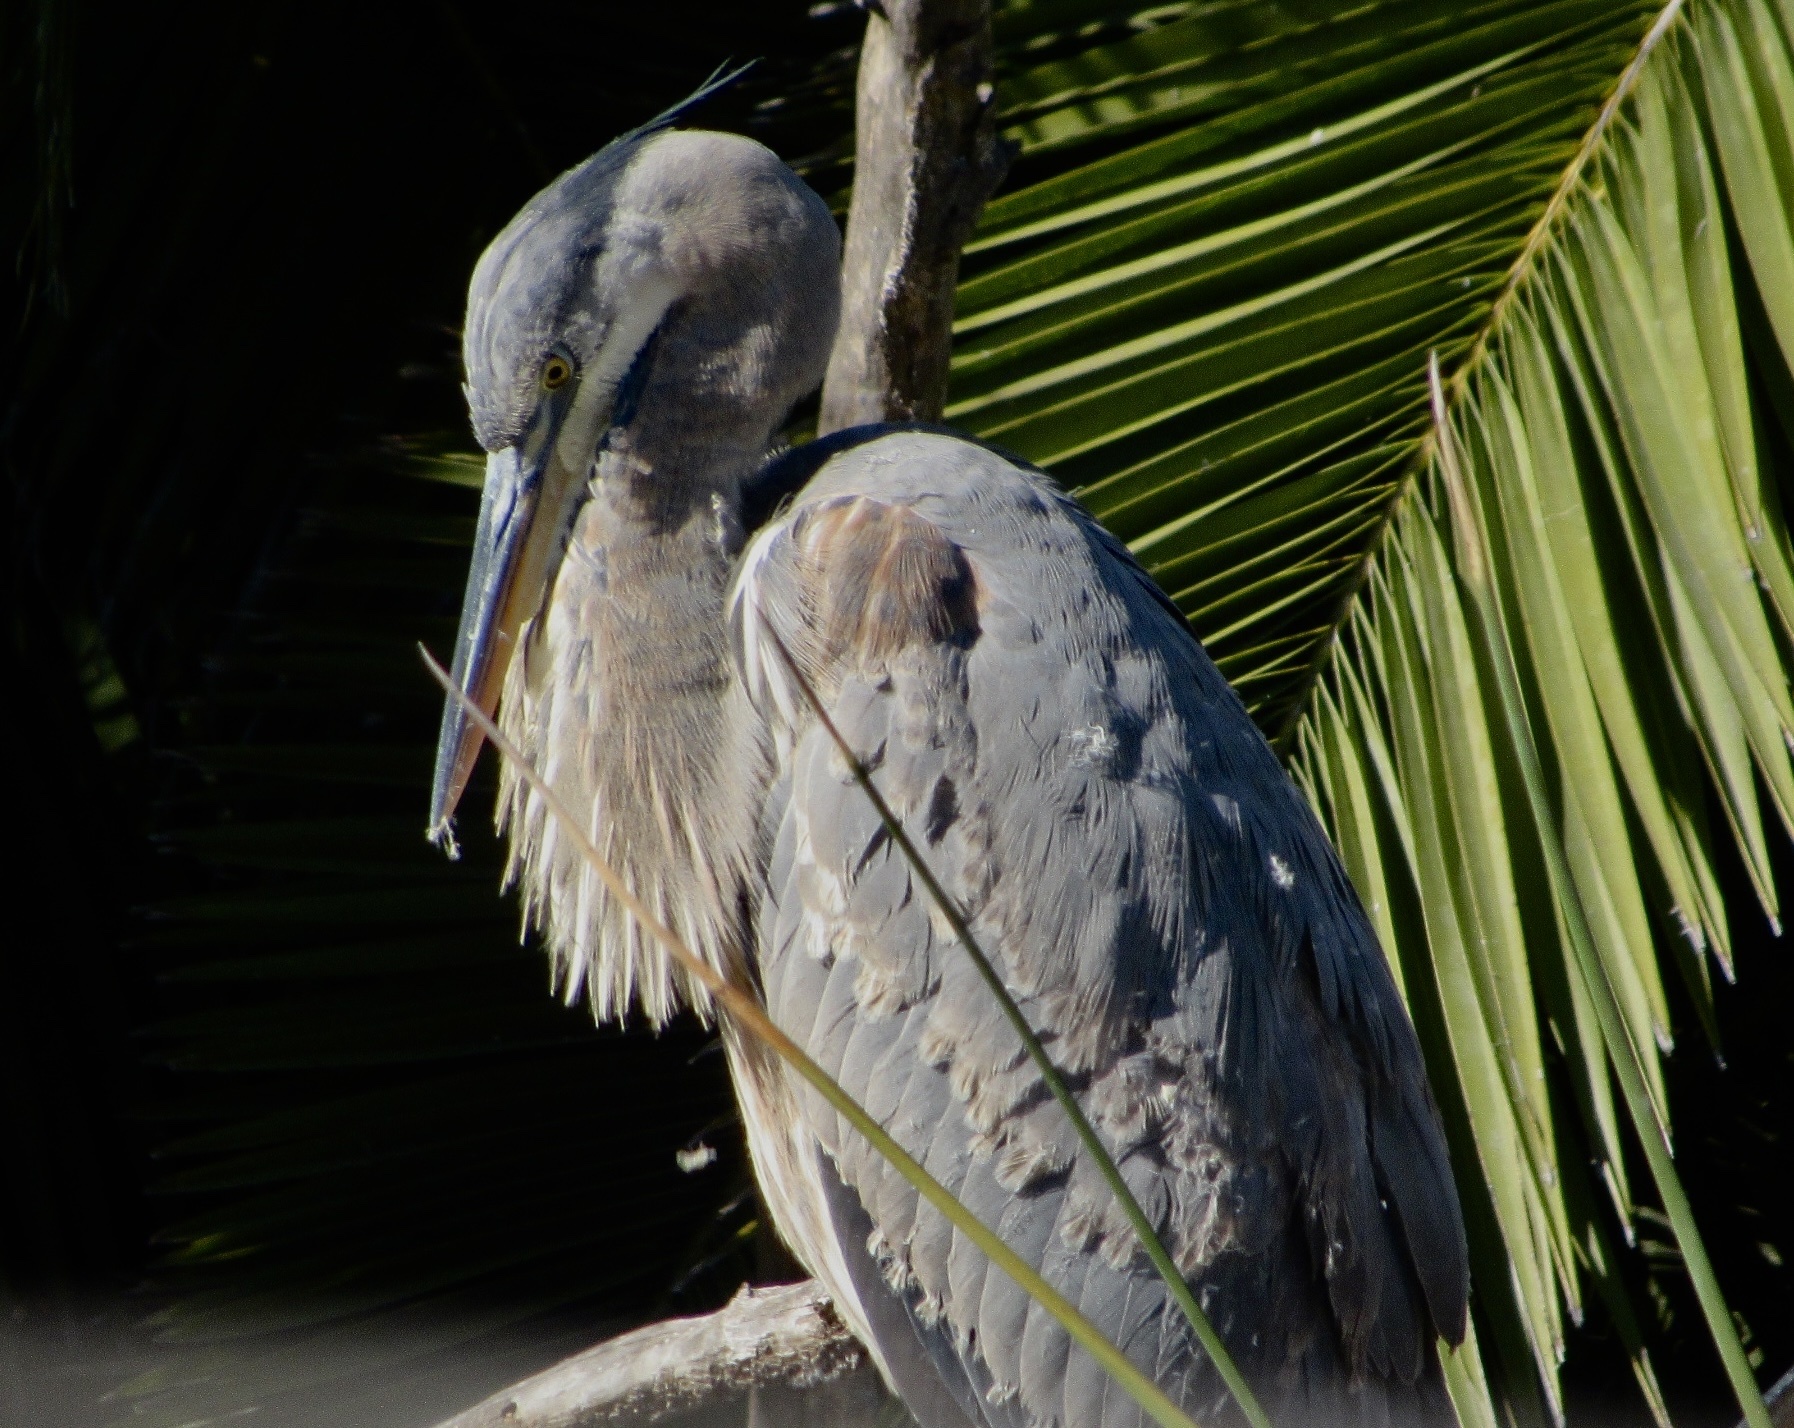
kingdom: Animalia
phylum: Chordata
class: Aves
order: Pelecaniformes
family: Ardeidae
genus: Ardea
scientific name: Ardea herodias
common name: Great blue heron
